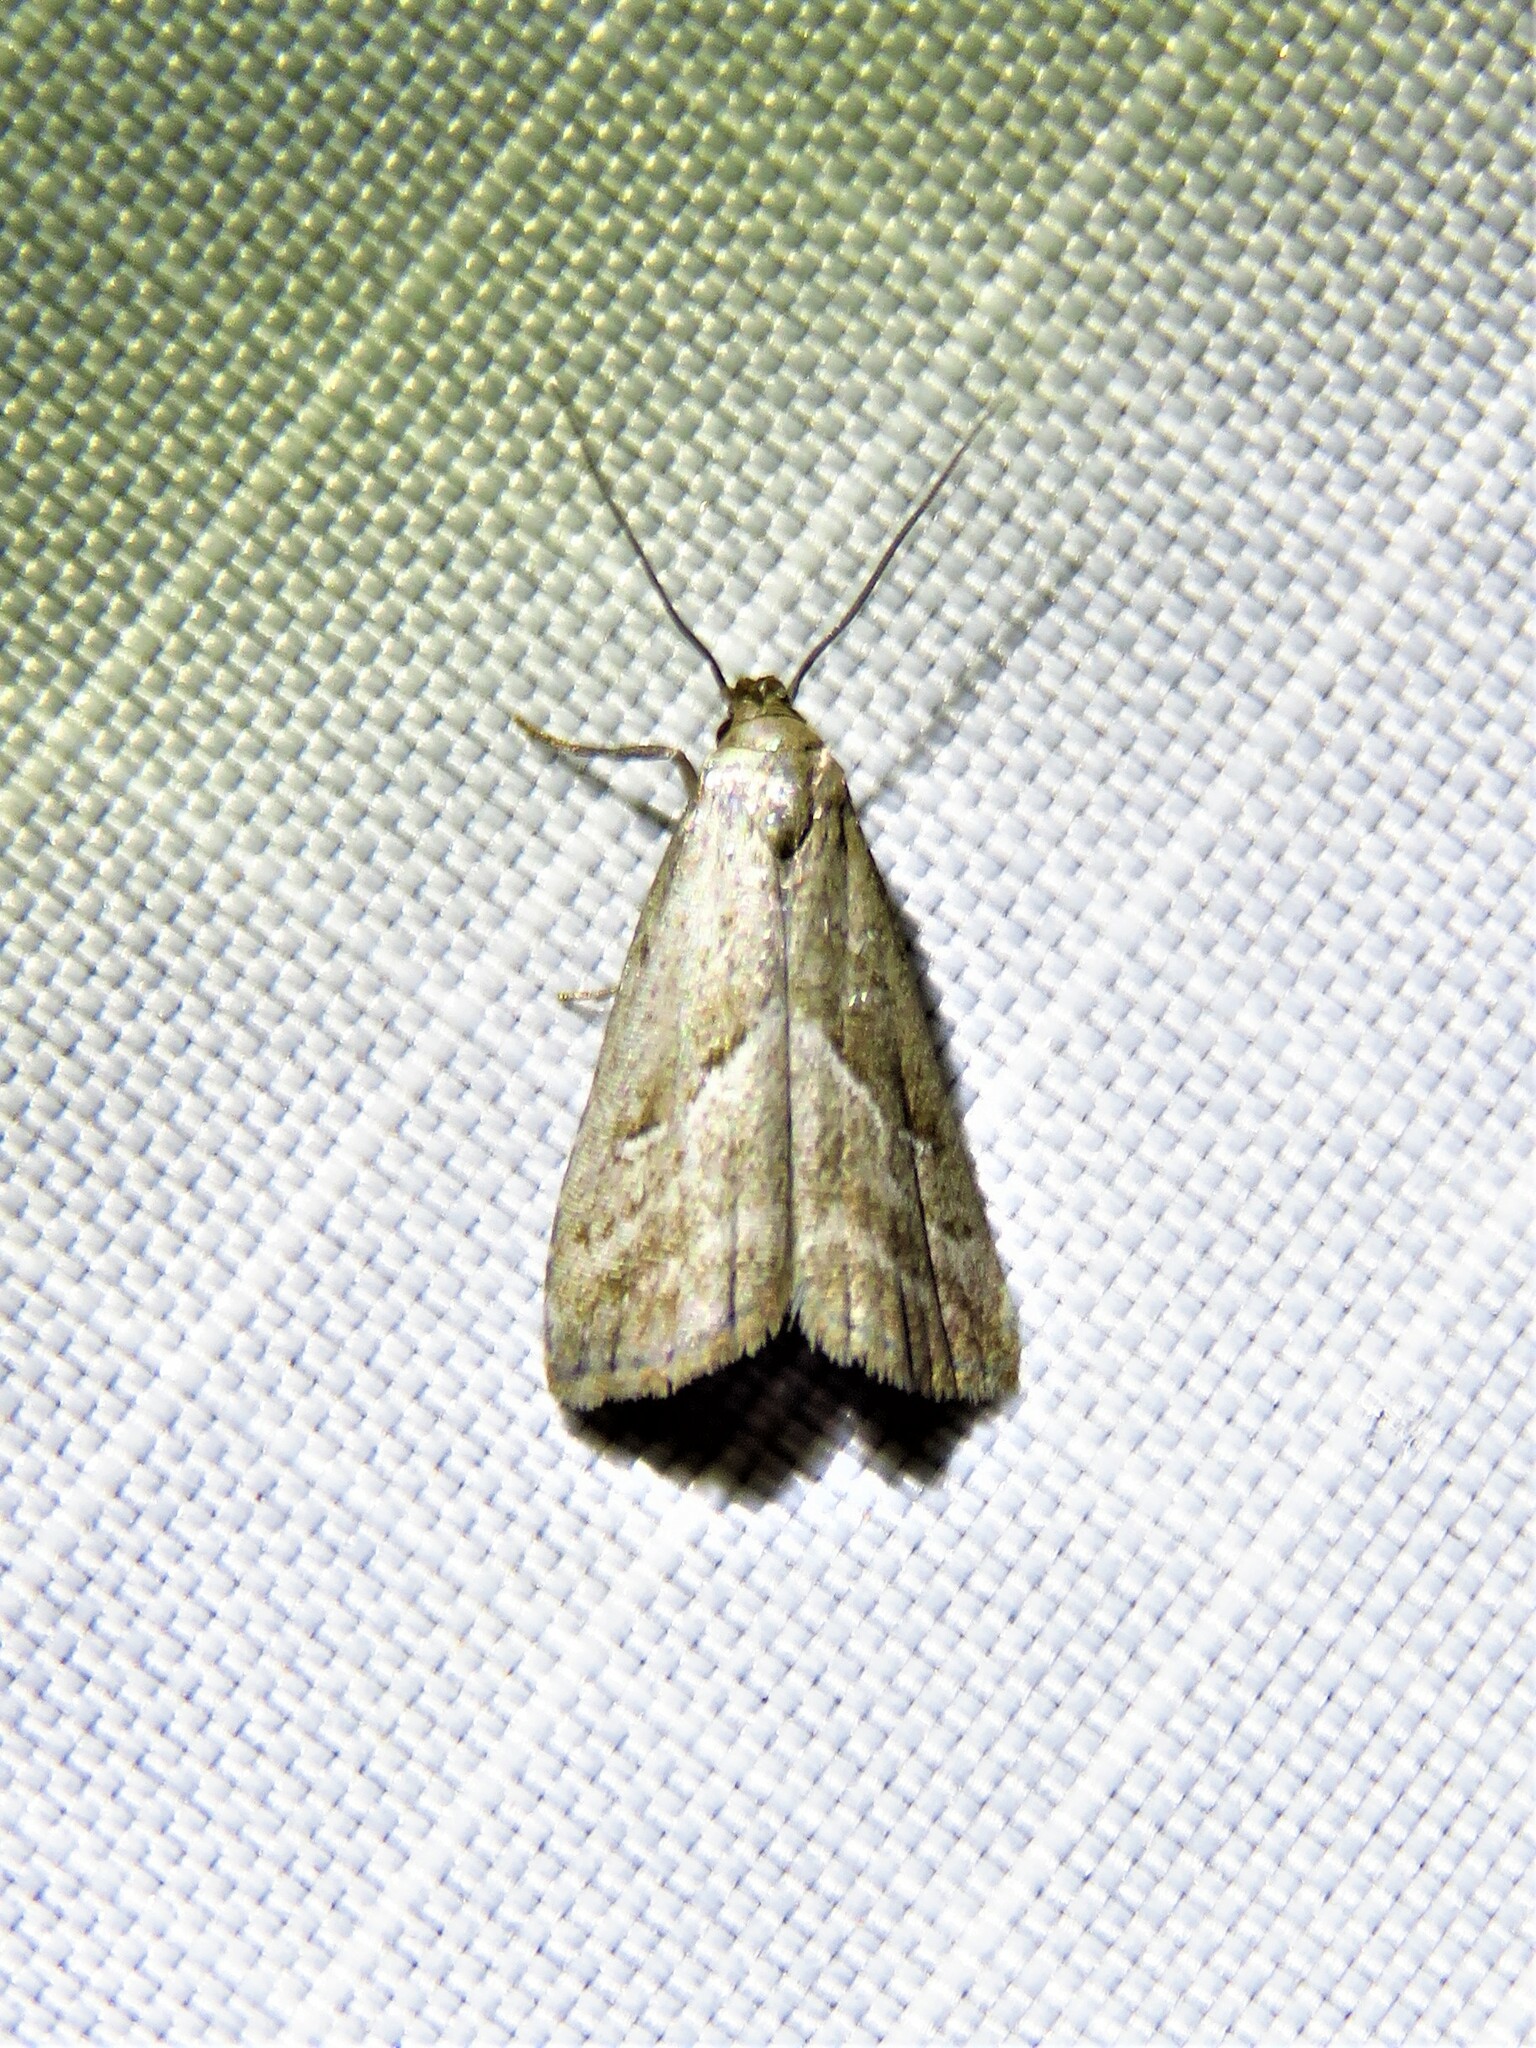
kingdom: Animalia
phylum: Arthropoda
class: Insecta
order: Lepidoptera
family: Erebidae
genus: Hypenodes
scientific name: Hypenodes humidalis
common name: Marsh oblique-barred
